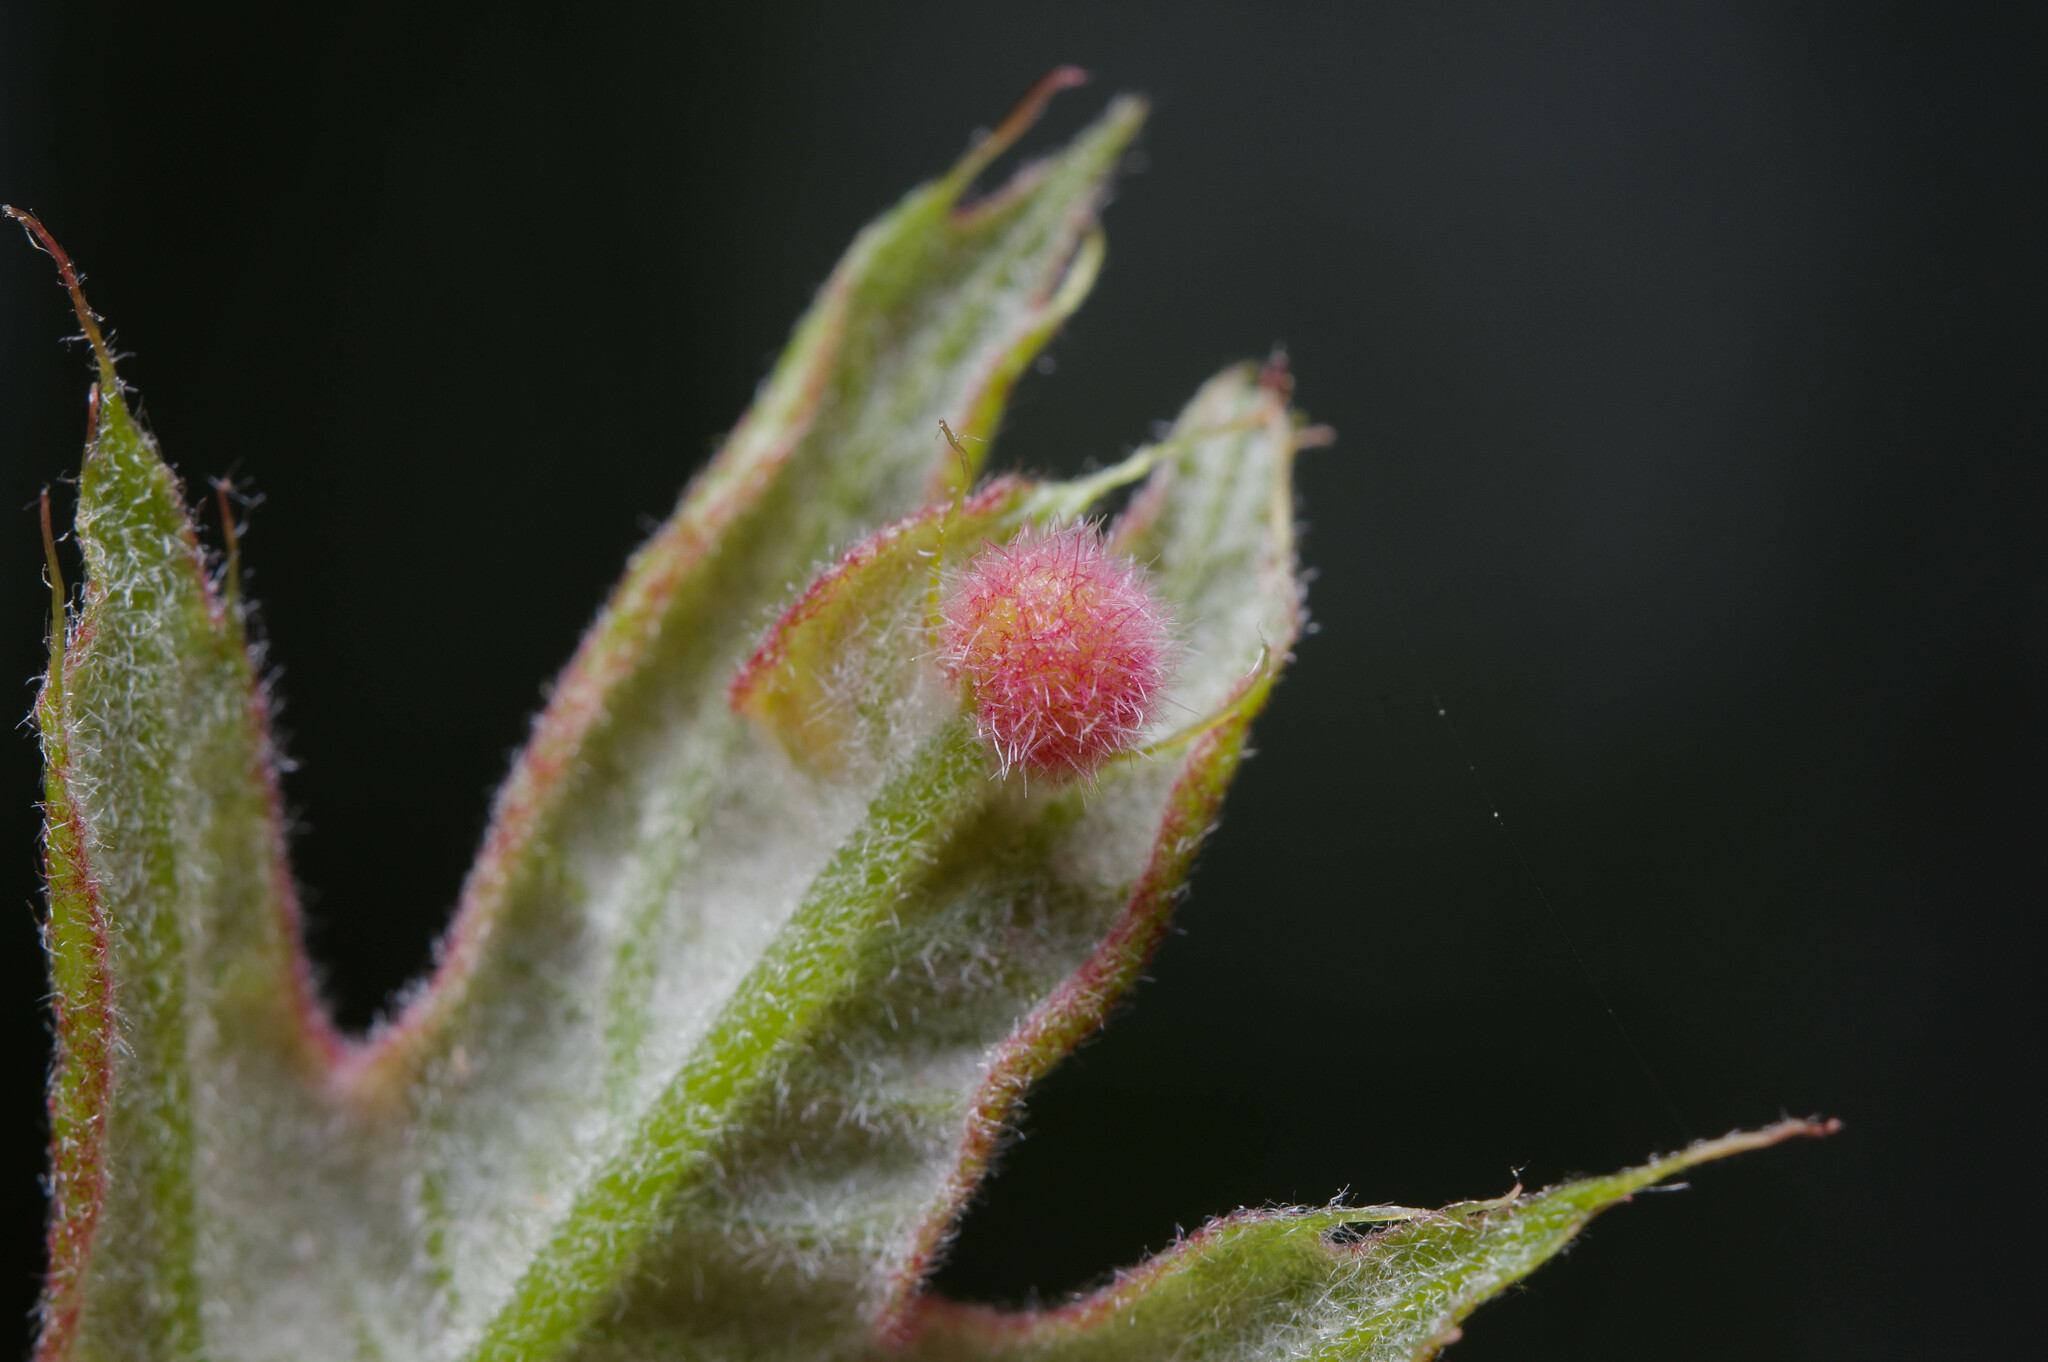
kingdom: Animalia
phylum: Arthropoda
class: Insecta
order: Hymenoptera
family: Cynipidae
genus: Amphibolips
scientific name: Amphibolips
